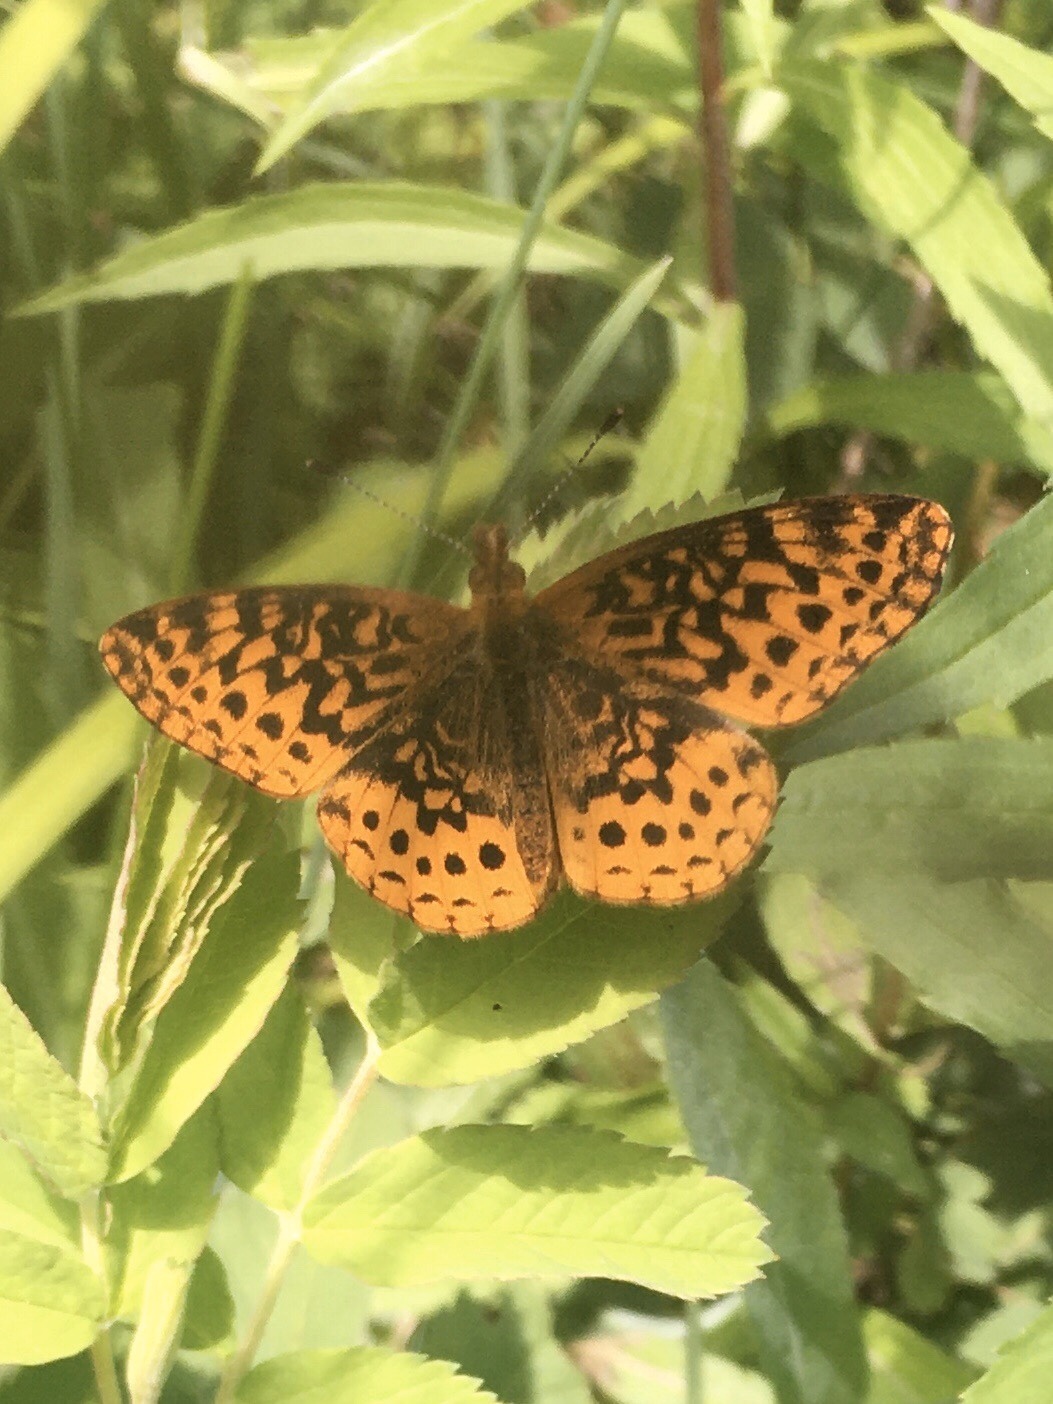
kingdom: Animalia
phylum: Arthropoda
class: Insecta
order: Lepidoptera
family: Nymphalidae
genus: Clossiana
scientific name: Clossiana toddi
